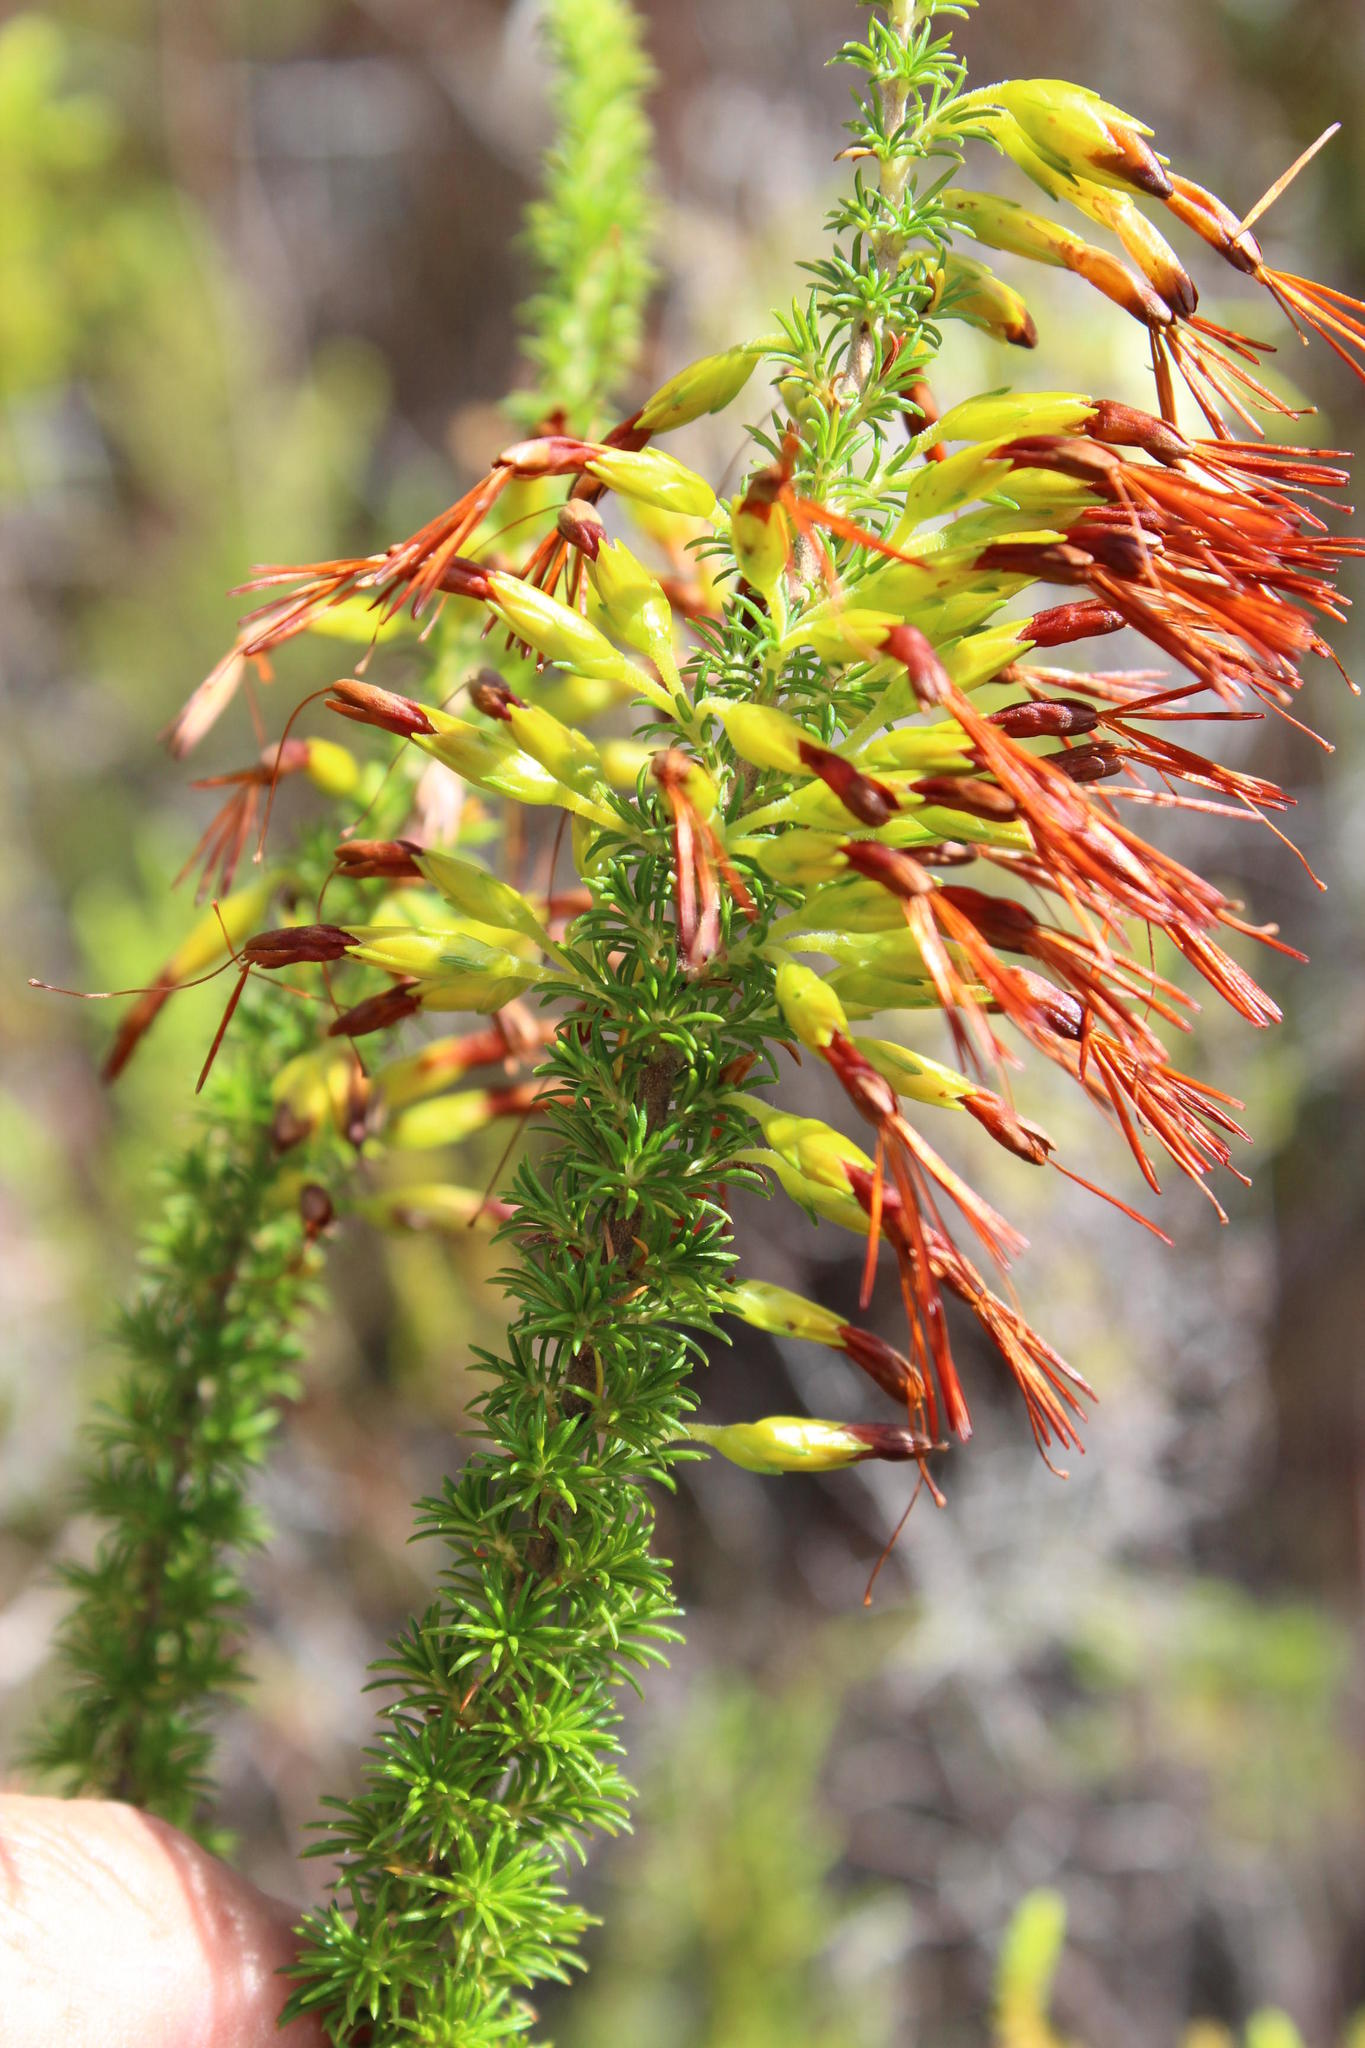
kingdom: Plantae
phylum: Tracheophyta
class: Magnoliopsida
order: Ericales
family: Ericaceae
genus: Erica
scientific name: Erica coccinea
